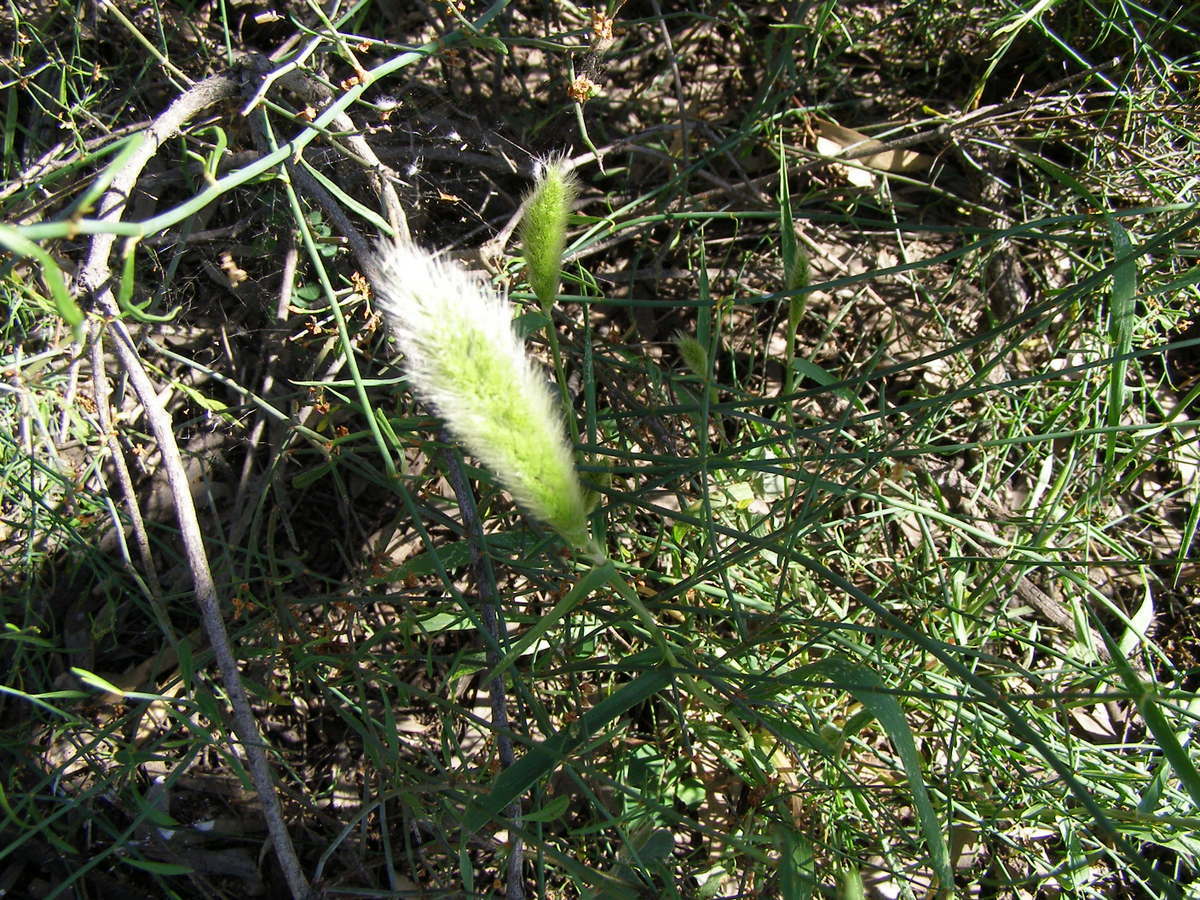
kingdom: Plantae
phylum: Tracheophyta
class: Liliopsida
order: Poales
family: Poaceae
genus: Polypogon
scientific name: Polypogon monspeliensis
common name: Annual rabbitsfoot grass
